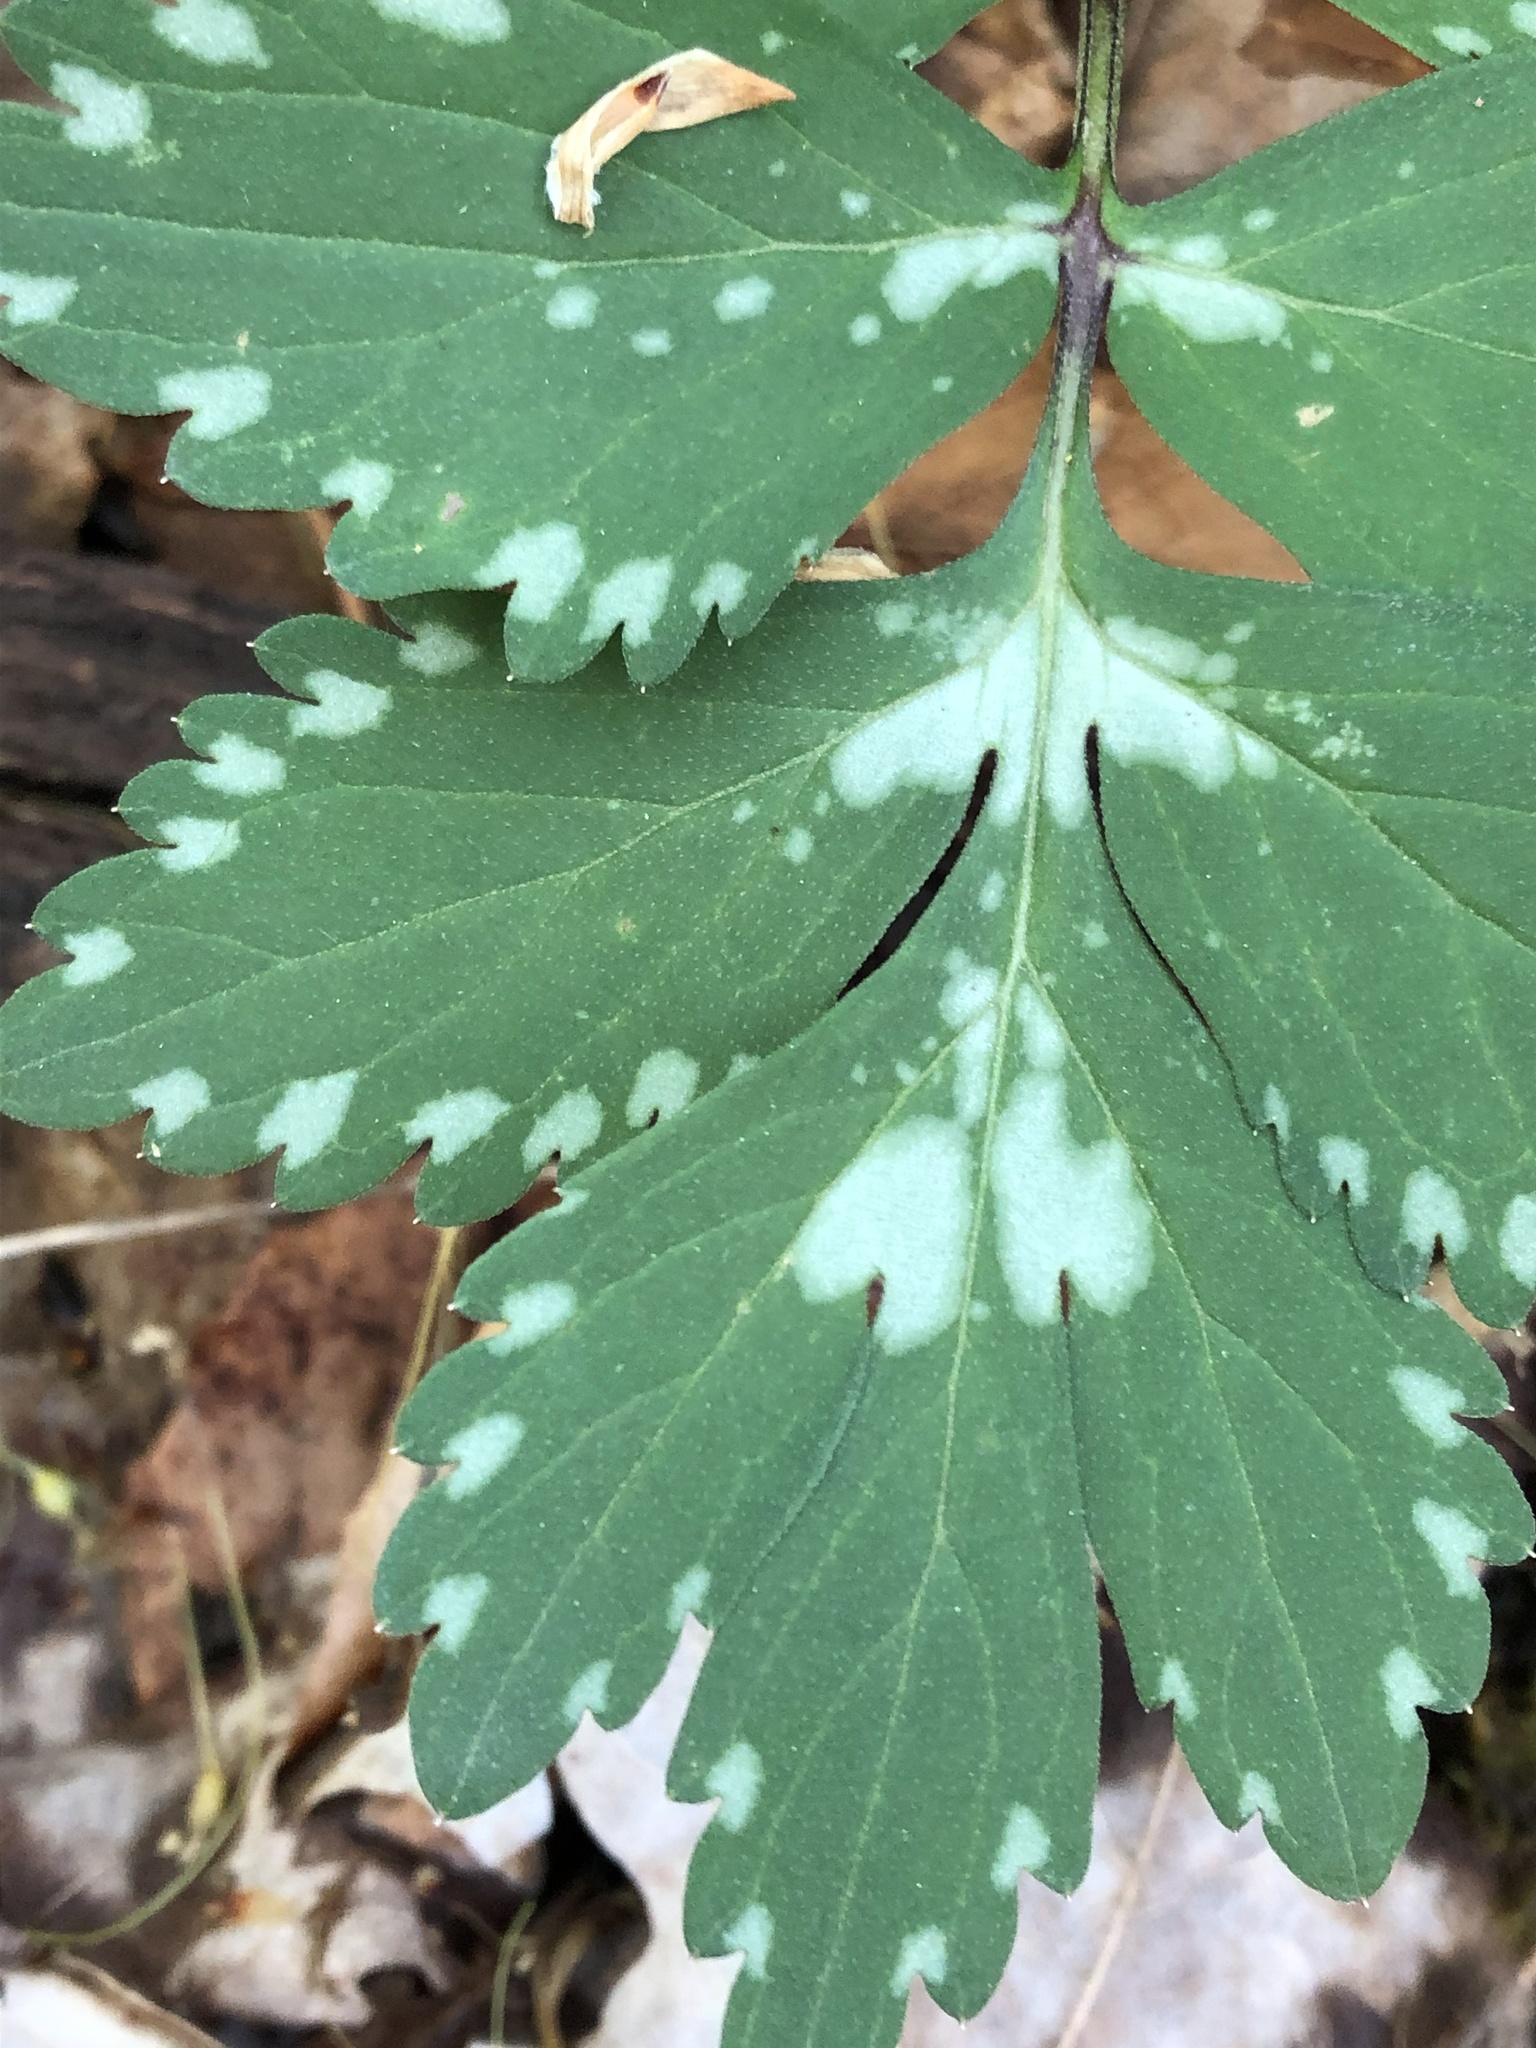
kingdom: Plantae
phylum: Tracheophyta
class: Magnoliopsida
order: Boraginales
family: Hydrophyllaceae
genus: Hydrophyllum
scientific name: Hydrophyllum virginianum
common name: Virginia waterleaf
